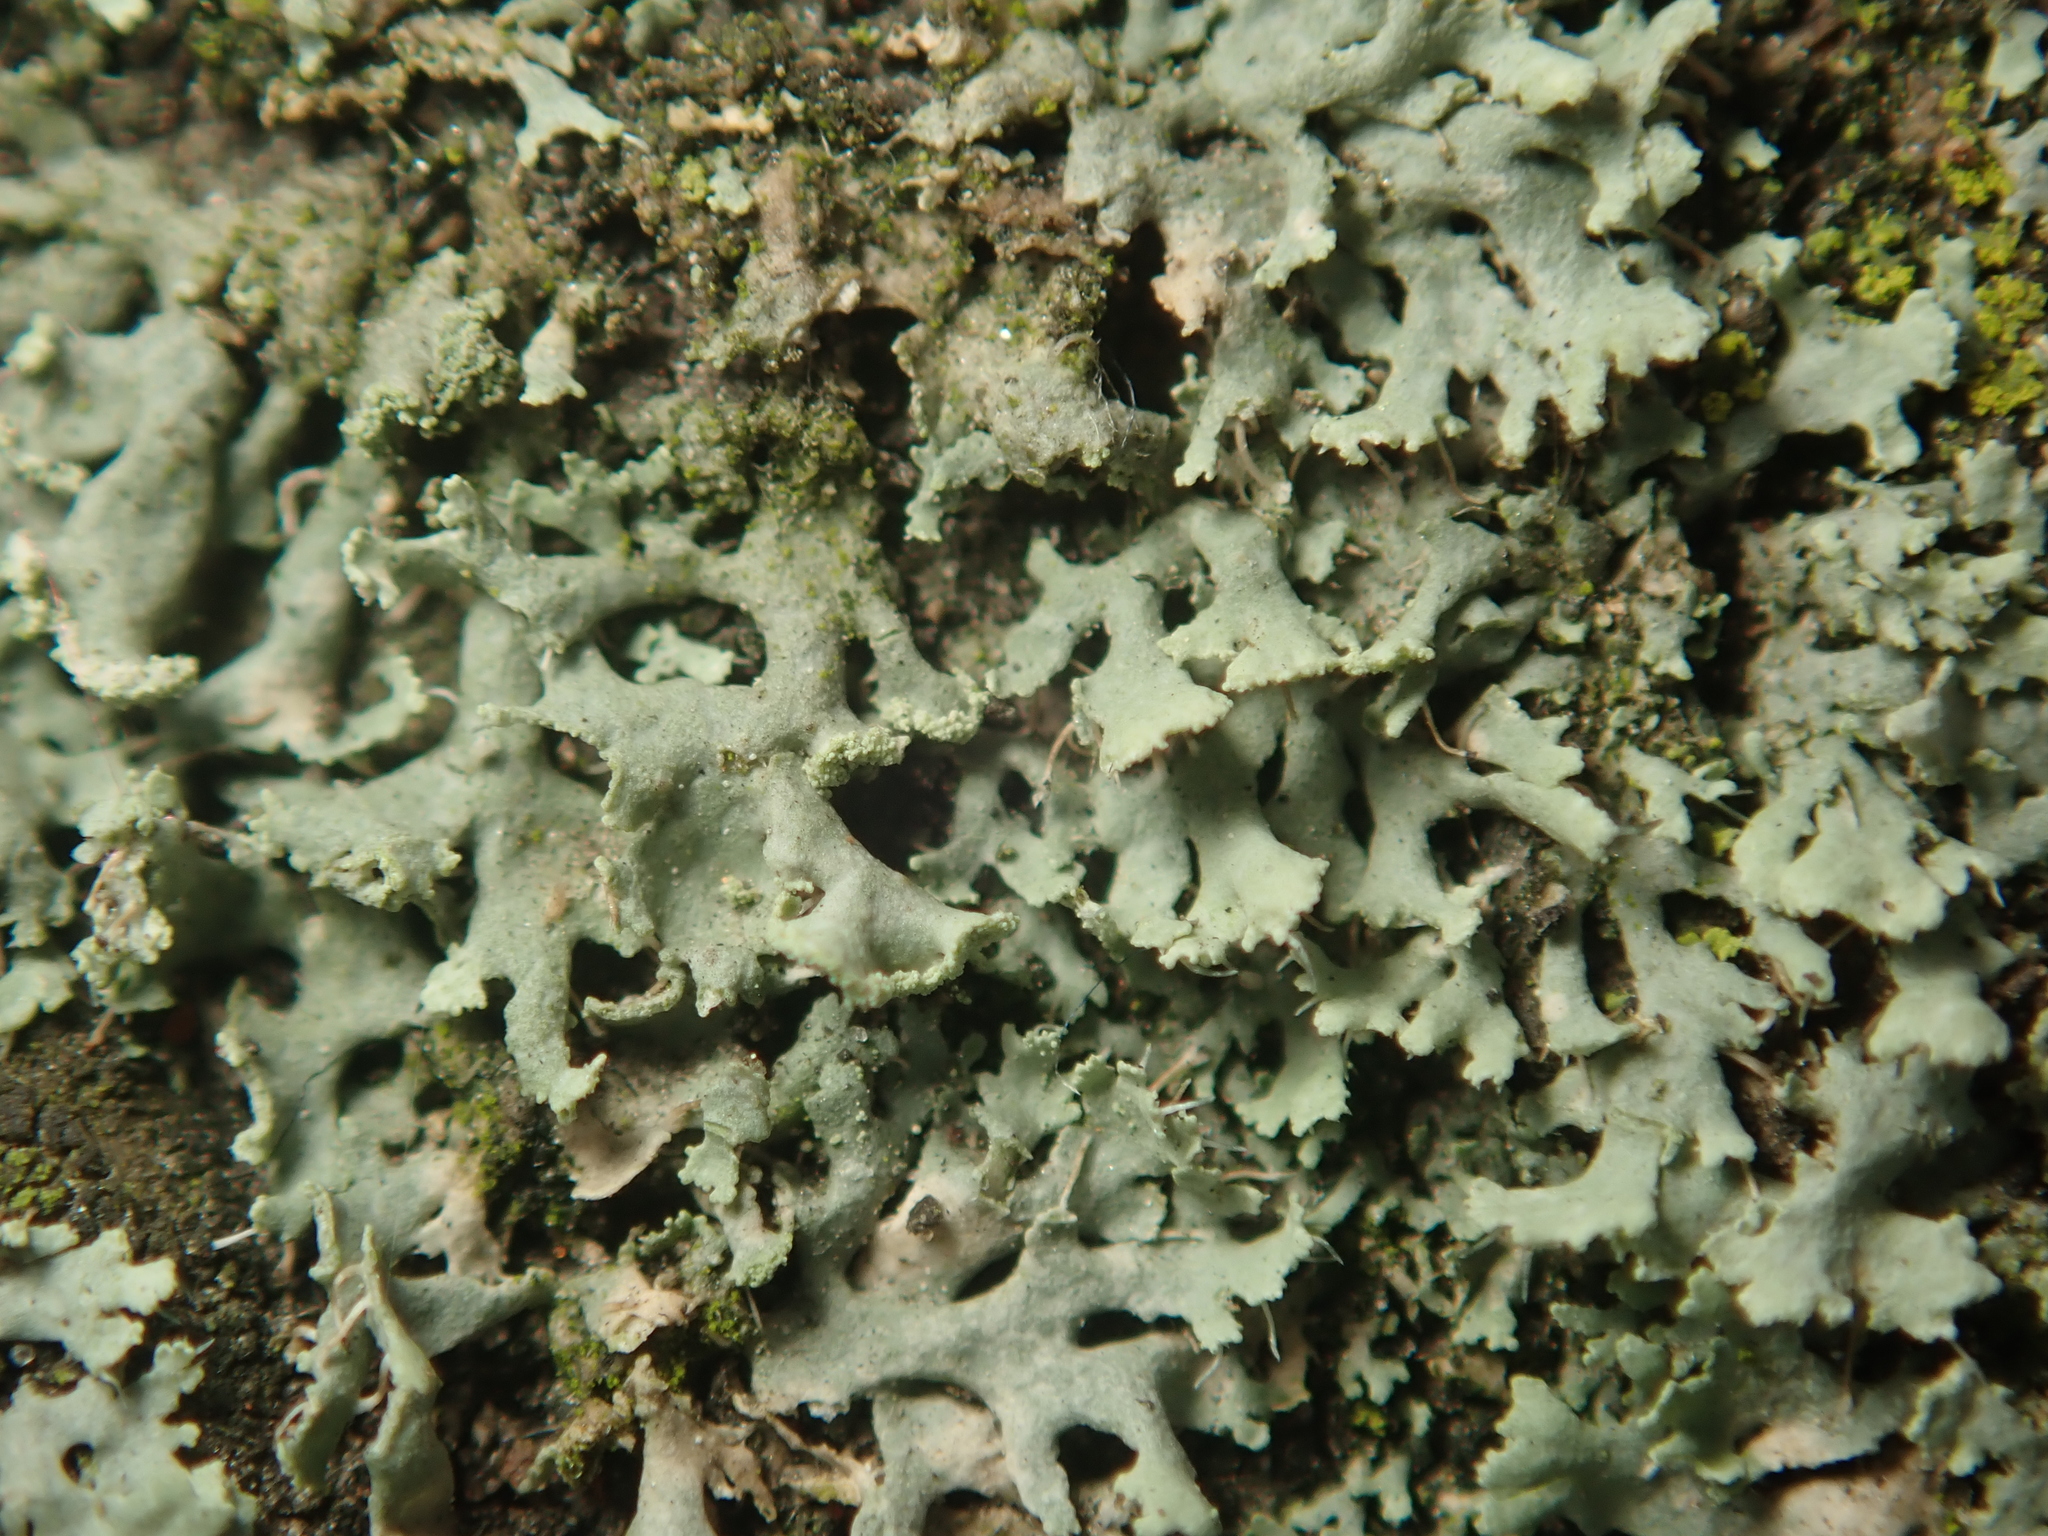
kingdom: Fungi
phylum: Ascomycota
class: Lecanoromycetes
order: Caliciales
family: Physciaceae
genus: Physcia
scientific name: Physcia tenella
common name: Fringed rosette lichen
